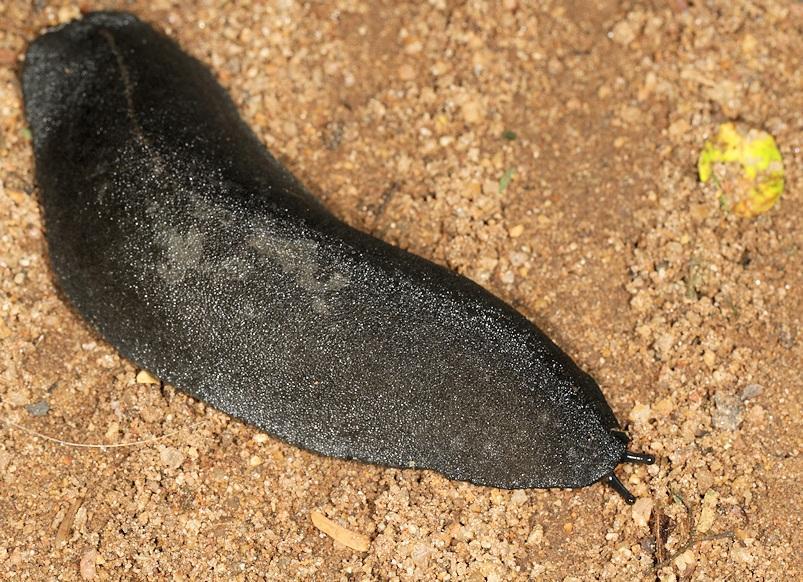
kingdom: Animalia
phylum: Mollusca
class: Gastropoda
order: Systellommatophora
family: Veronicellidae
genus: Laevicaulis
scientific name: Laevicaulis alte
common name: Tropical leatherleaf
